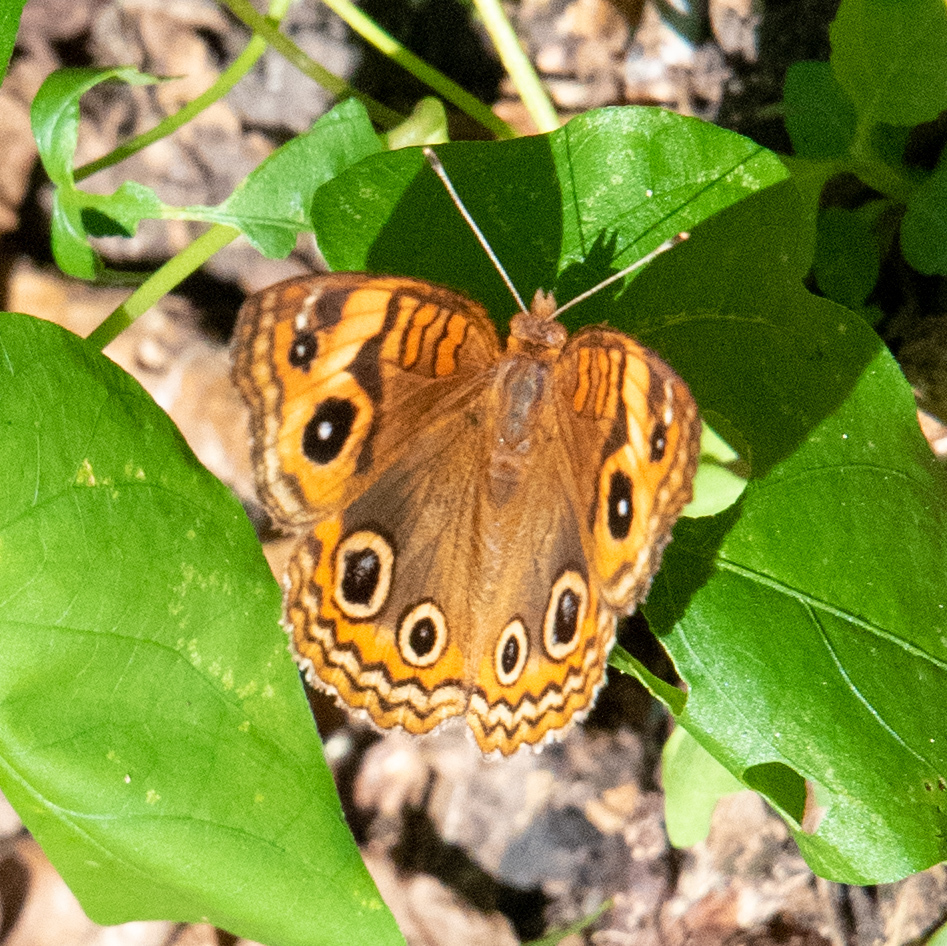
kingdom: Animalia
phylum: Arthropoda
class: Insecta
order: Lepidoptera
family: Nymphalidae
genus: Junonia
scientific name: Junonia neildi
